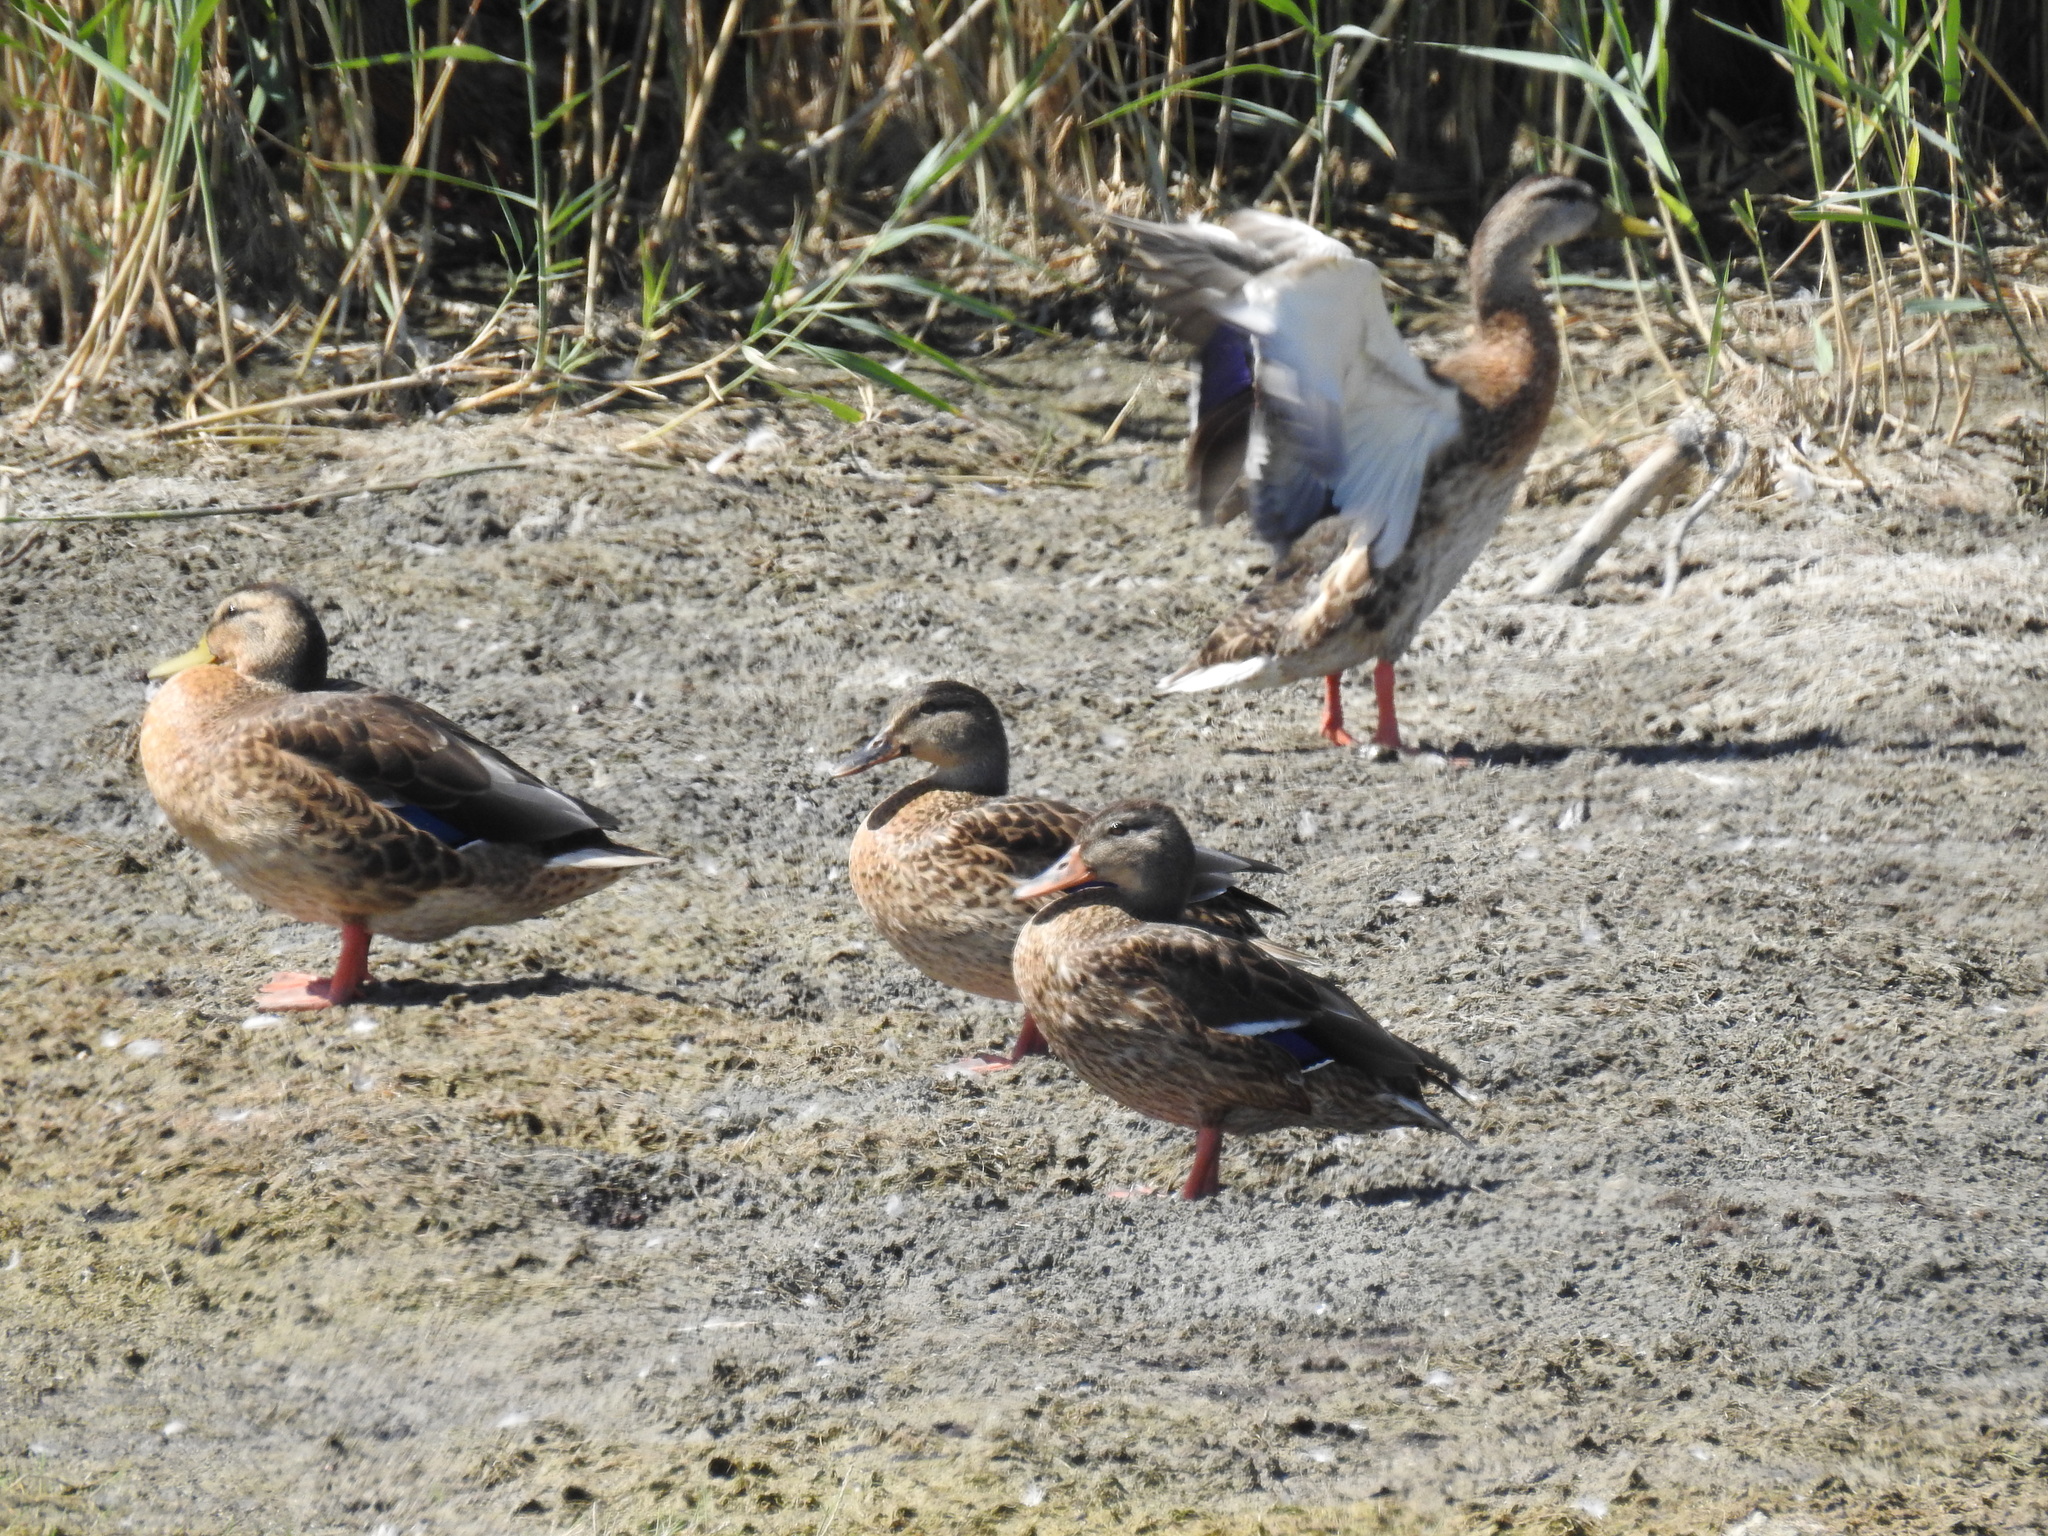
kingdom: Animalia
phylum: Chordata
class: Aves
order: Anseriformes
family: Anatidae
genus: Anas
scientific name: Anas platyrhynchos
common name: Mallard
